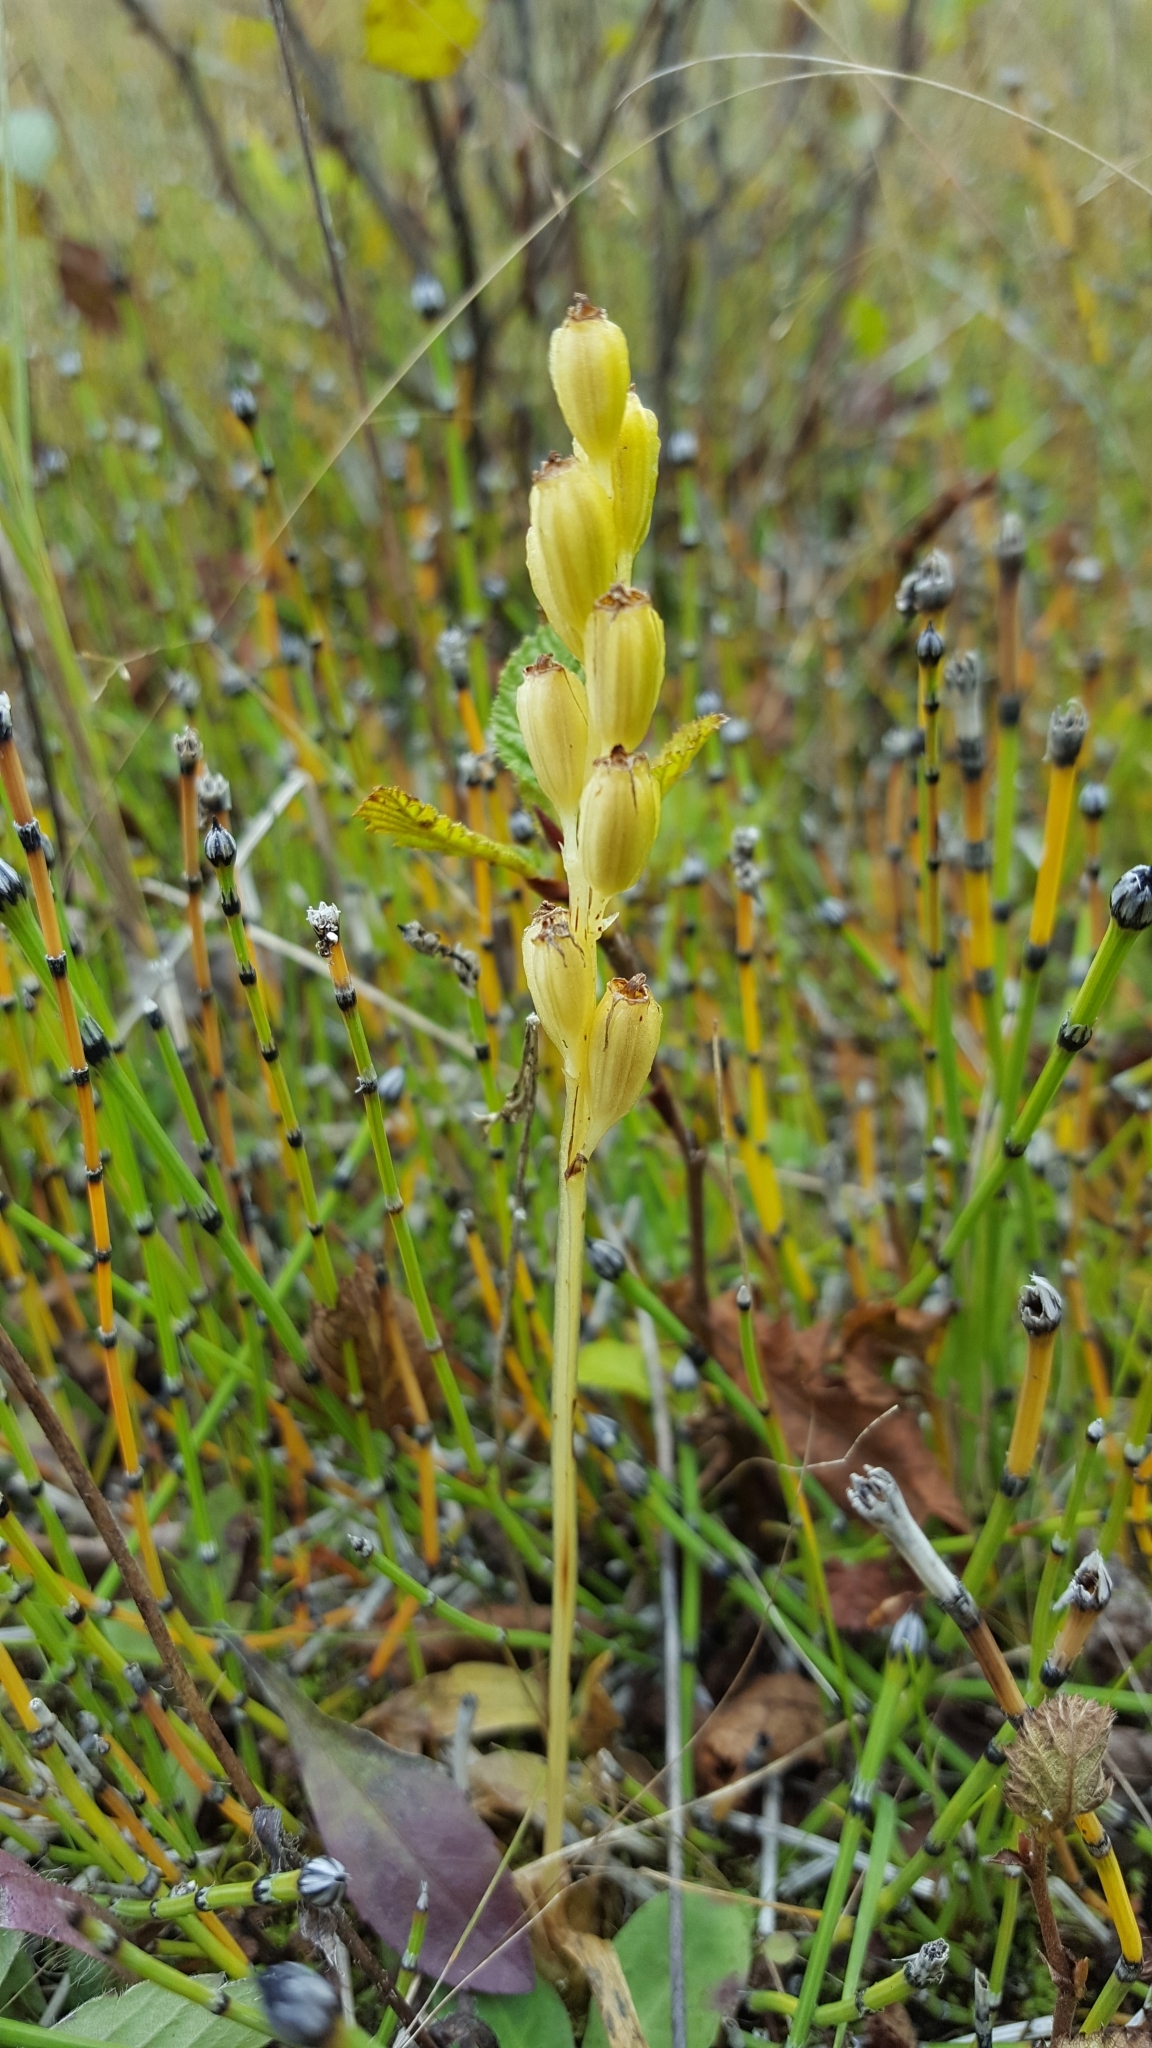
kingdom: Animalia
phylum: Arthropoda
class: Insecta
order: Coleoptera
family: Curculionidae
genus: Liparis
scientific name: Liparis loeselii
